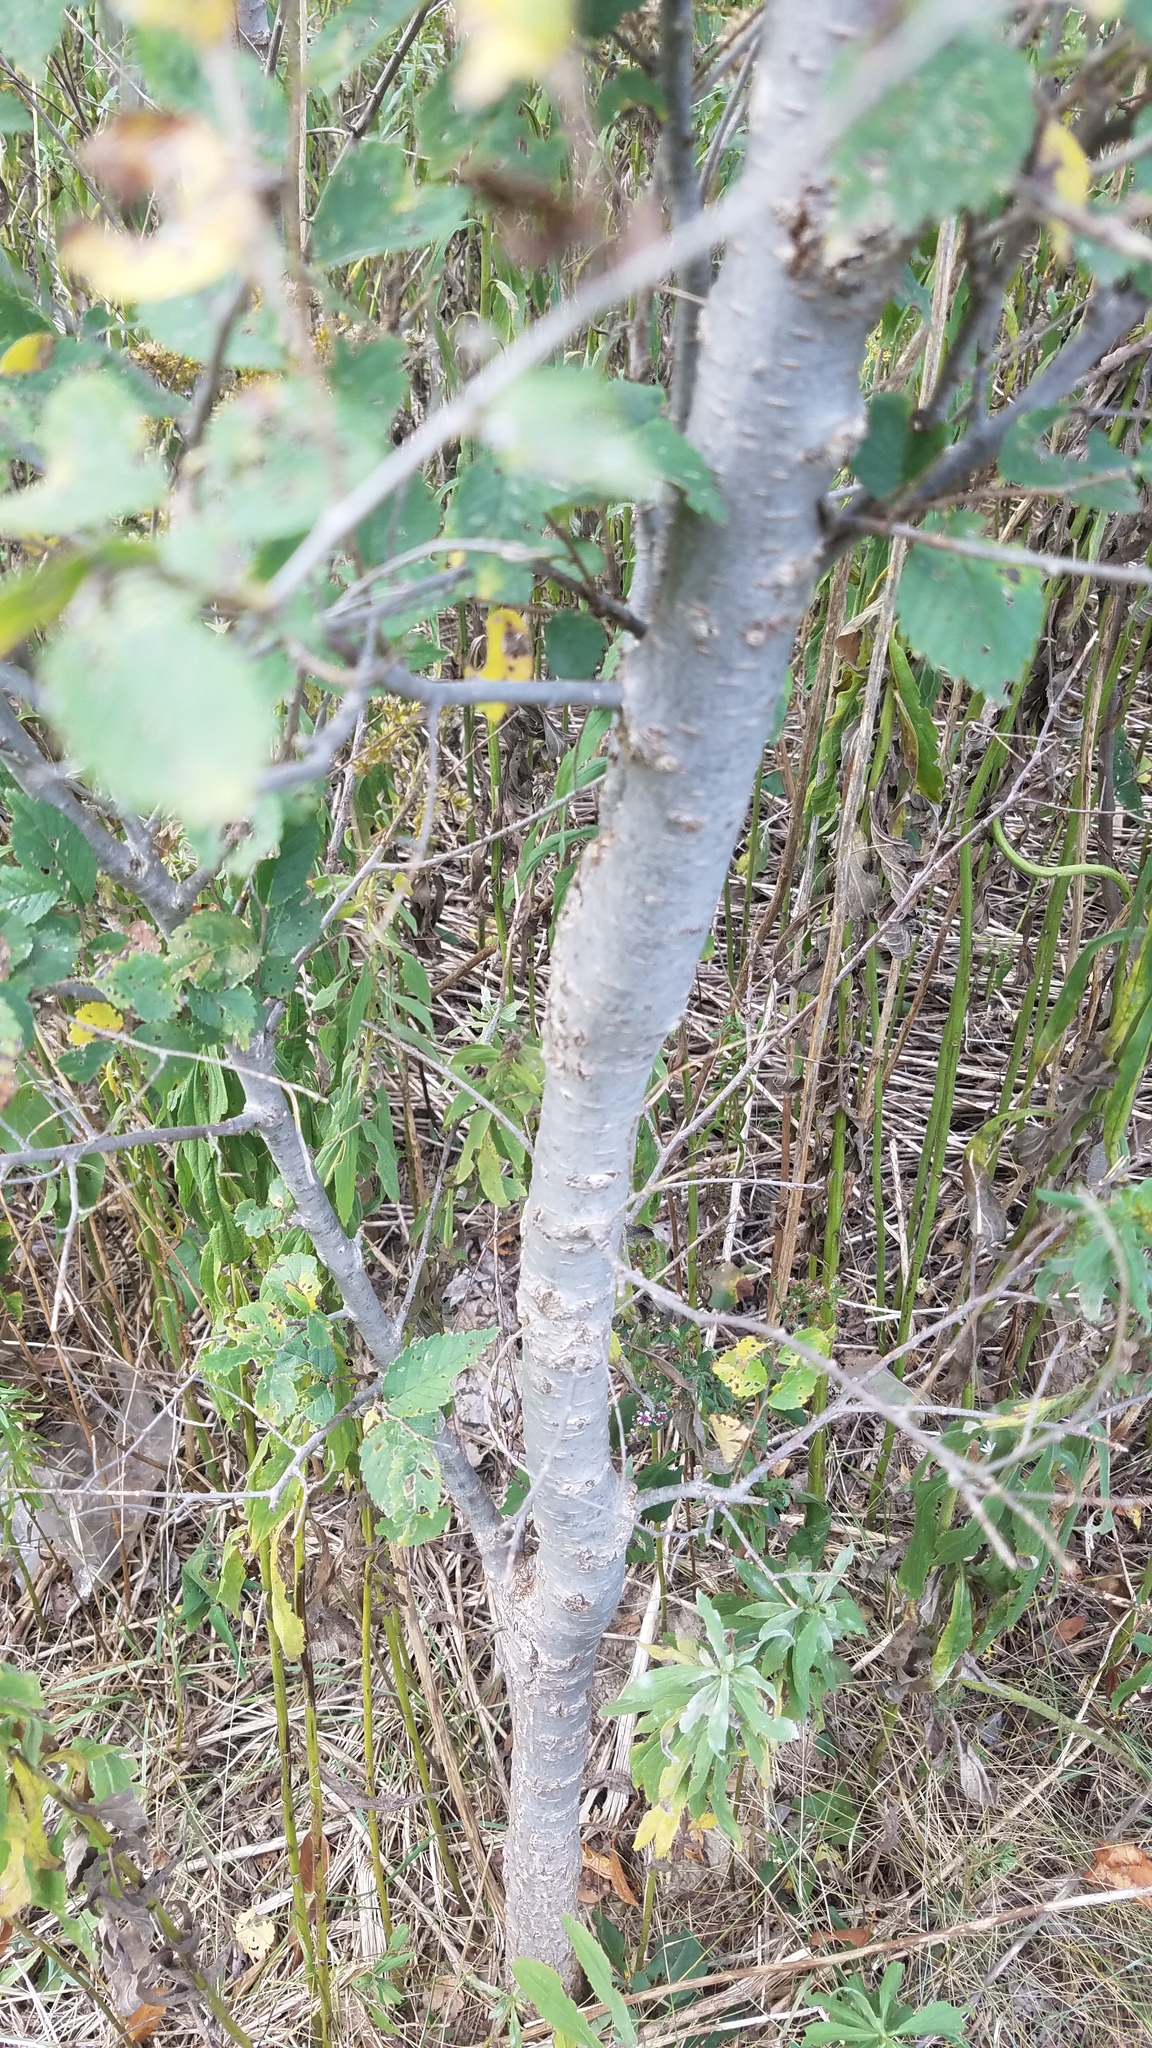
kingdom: Plantae
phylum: Tracheophyta
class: Magnoliopsida
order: Rosales
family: Ulmaceae
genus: Ulmus
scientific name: Ulmus pumila
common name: Siberian elm
